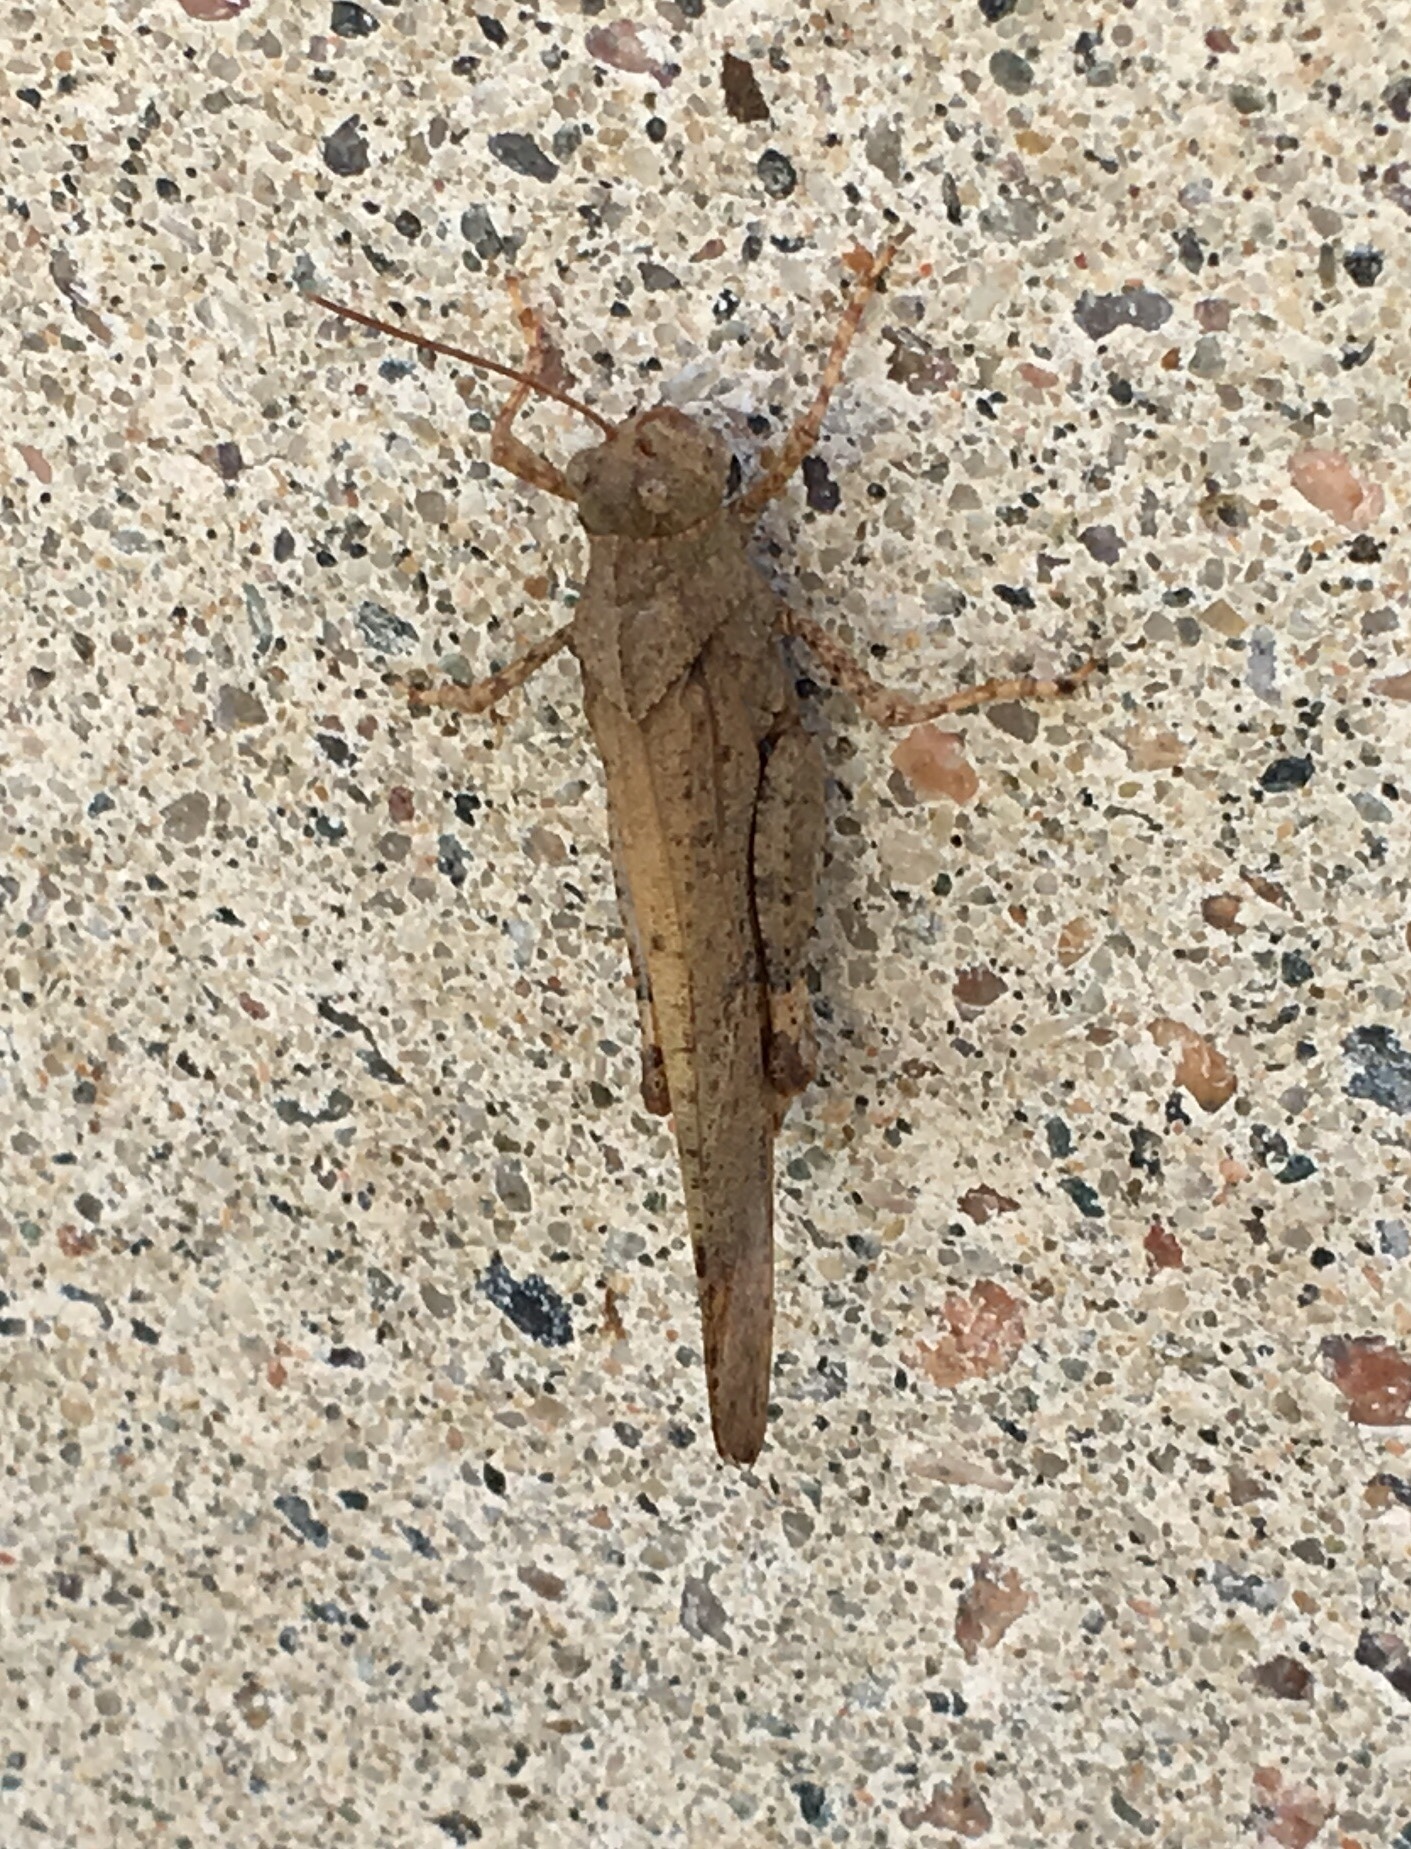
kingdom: Animalia
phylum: Arthropoda
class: Insecta
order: Orthoptera
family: Acrididae
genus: Dissosteira
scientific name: Dissosteira carolina
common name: Carolina grasshopper
